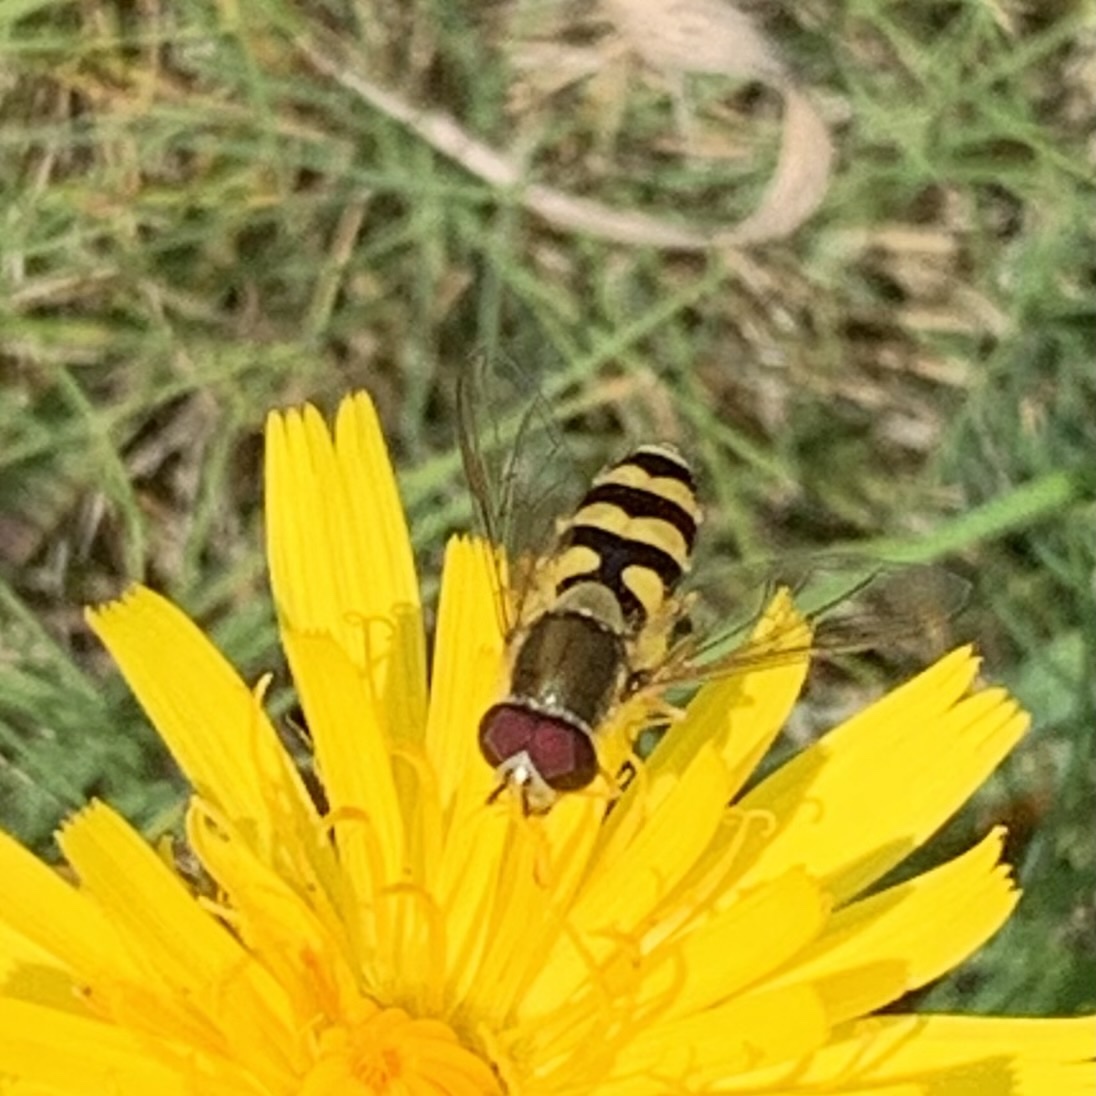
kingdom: Animalia
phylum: Arthropoda
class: Insecta
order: Diptera
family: Syrphidae
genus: Syrphus
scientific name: Syrphus
